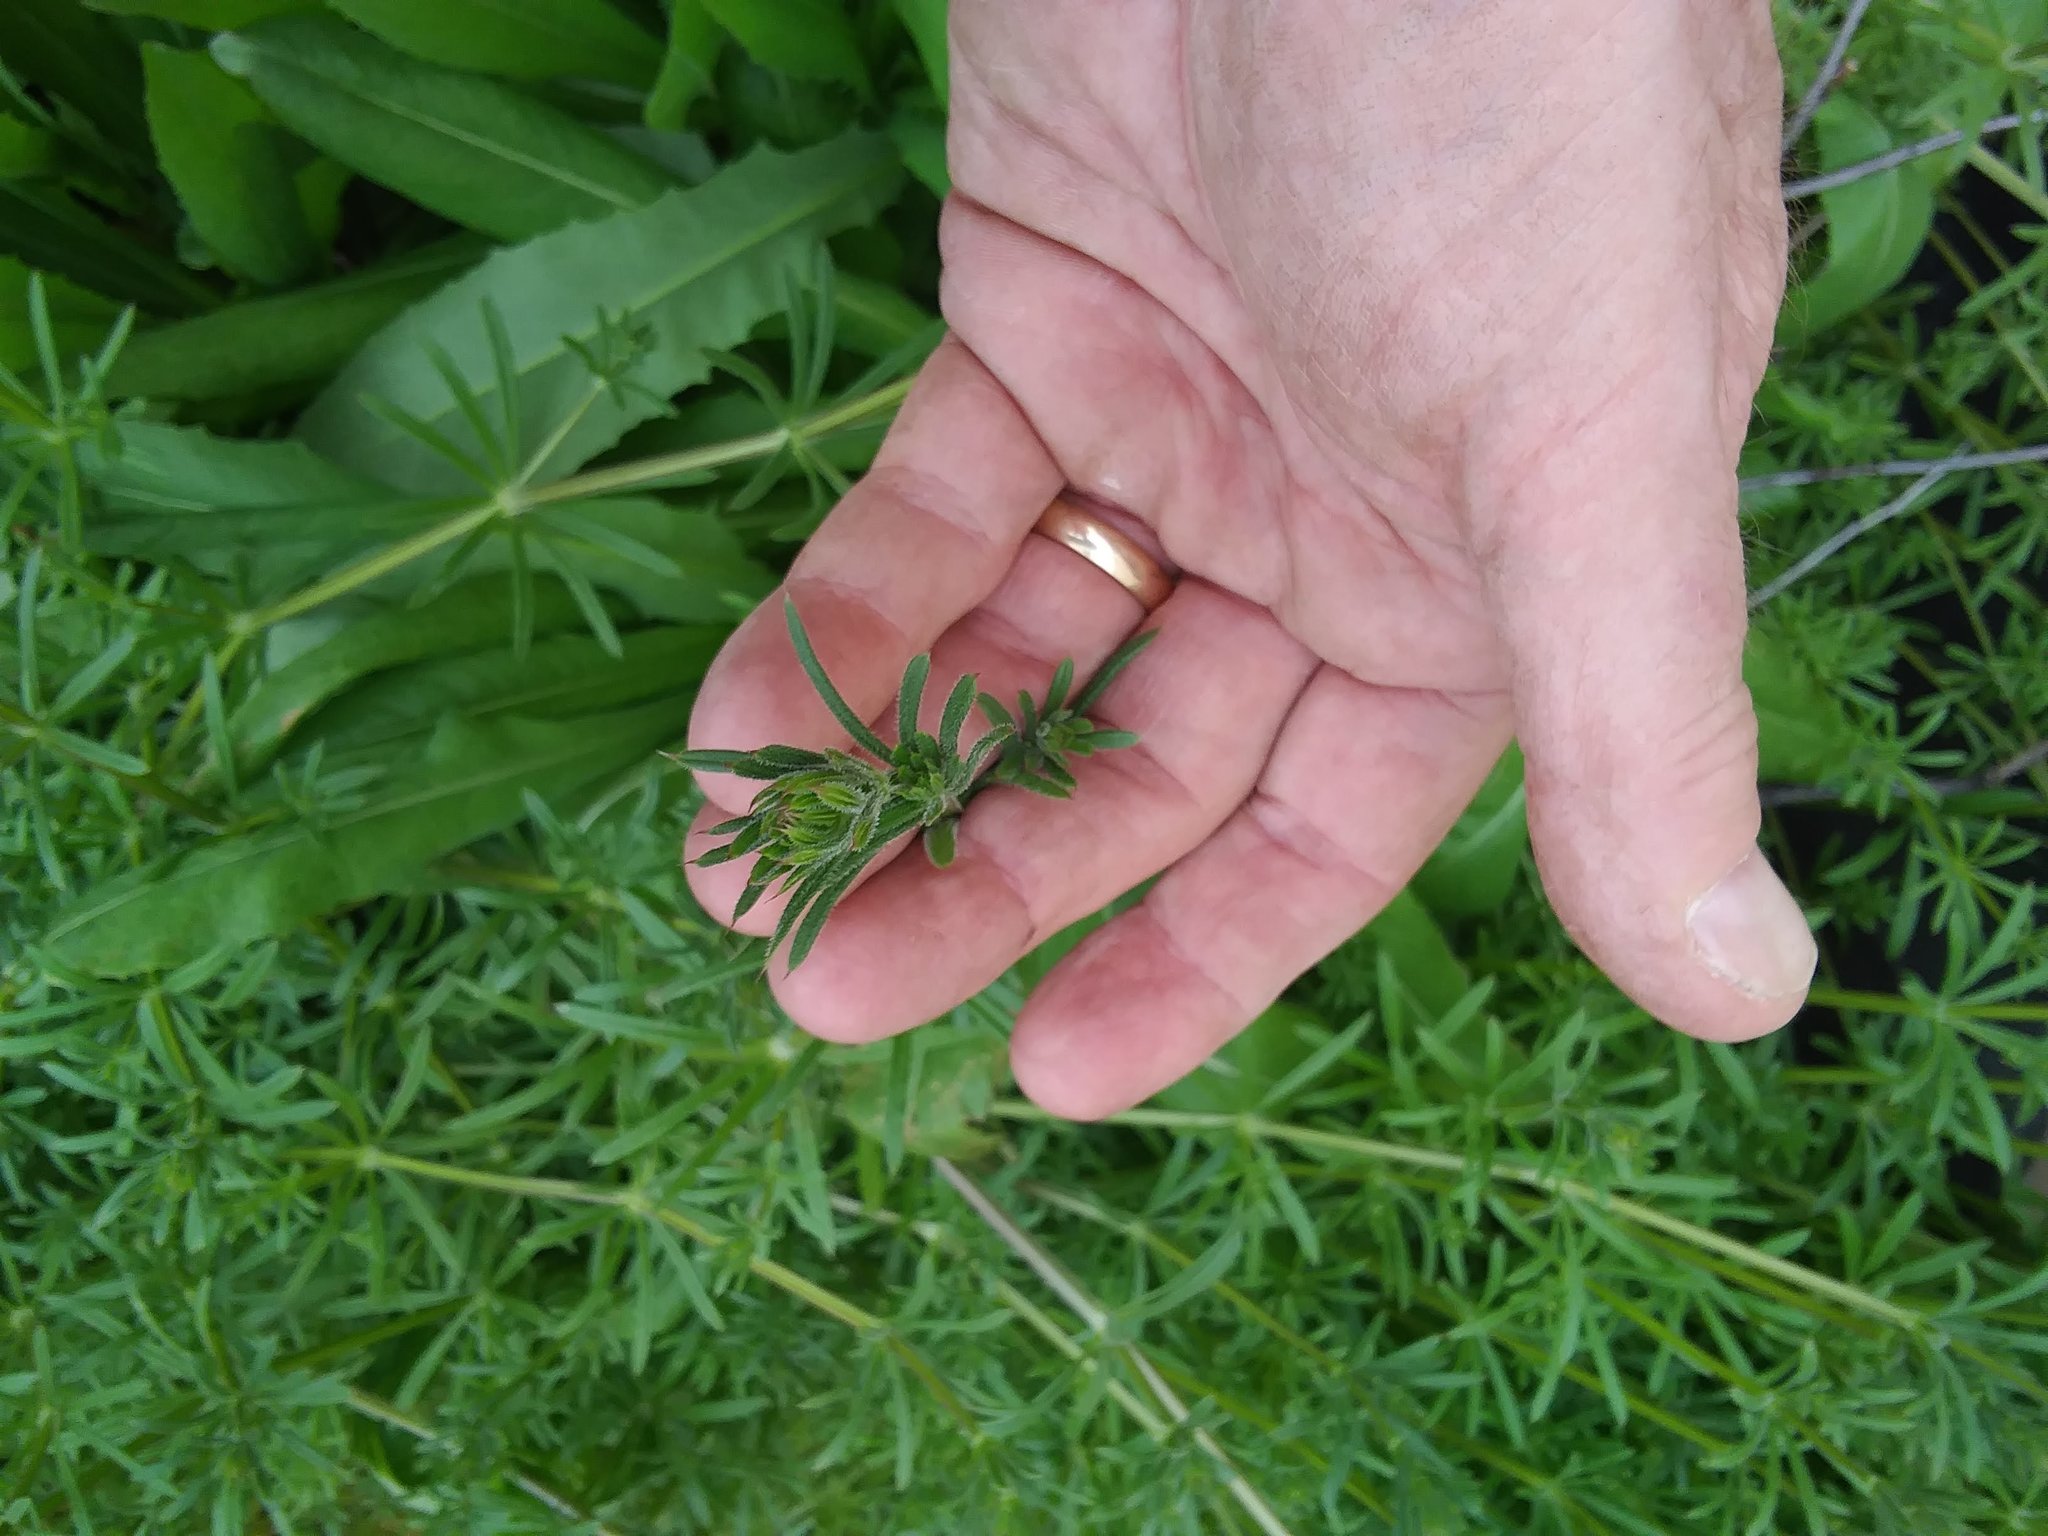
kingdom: Plantae
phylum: Tracheophyta
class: Magnoliopsida
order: Gentianales
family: Rubiaceae
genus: Galium
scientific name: Galium aparine
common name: Cleavers
